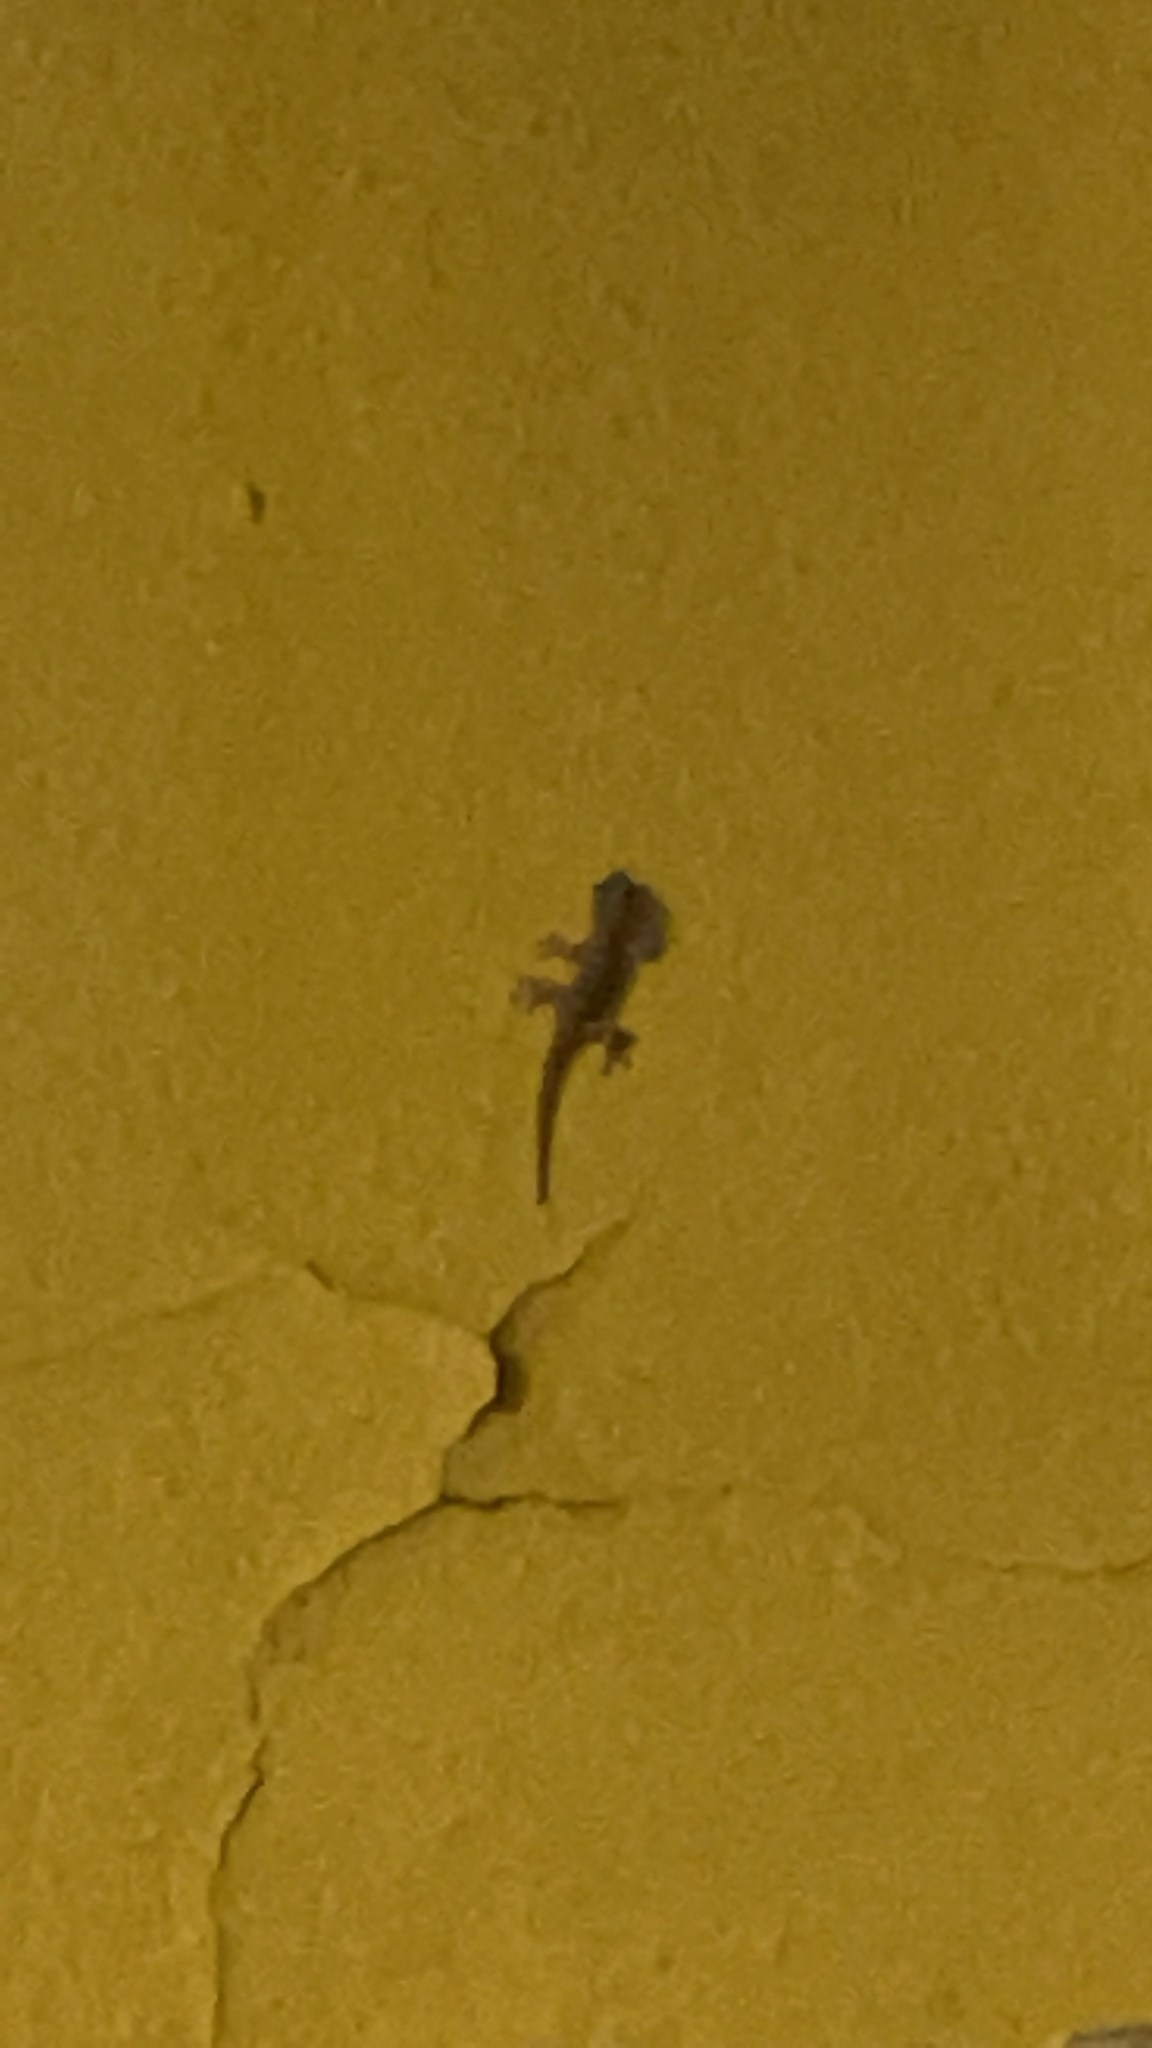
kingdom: Animalia
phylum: Chordata
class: Squamata
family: Phyllodactylidae
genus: Tarentola
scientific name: Tarentola mauritanica
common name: Moorish gecko
